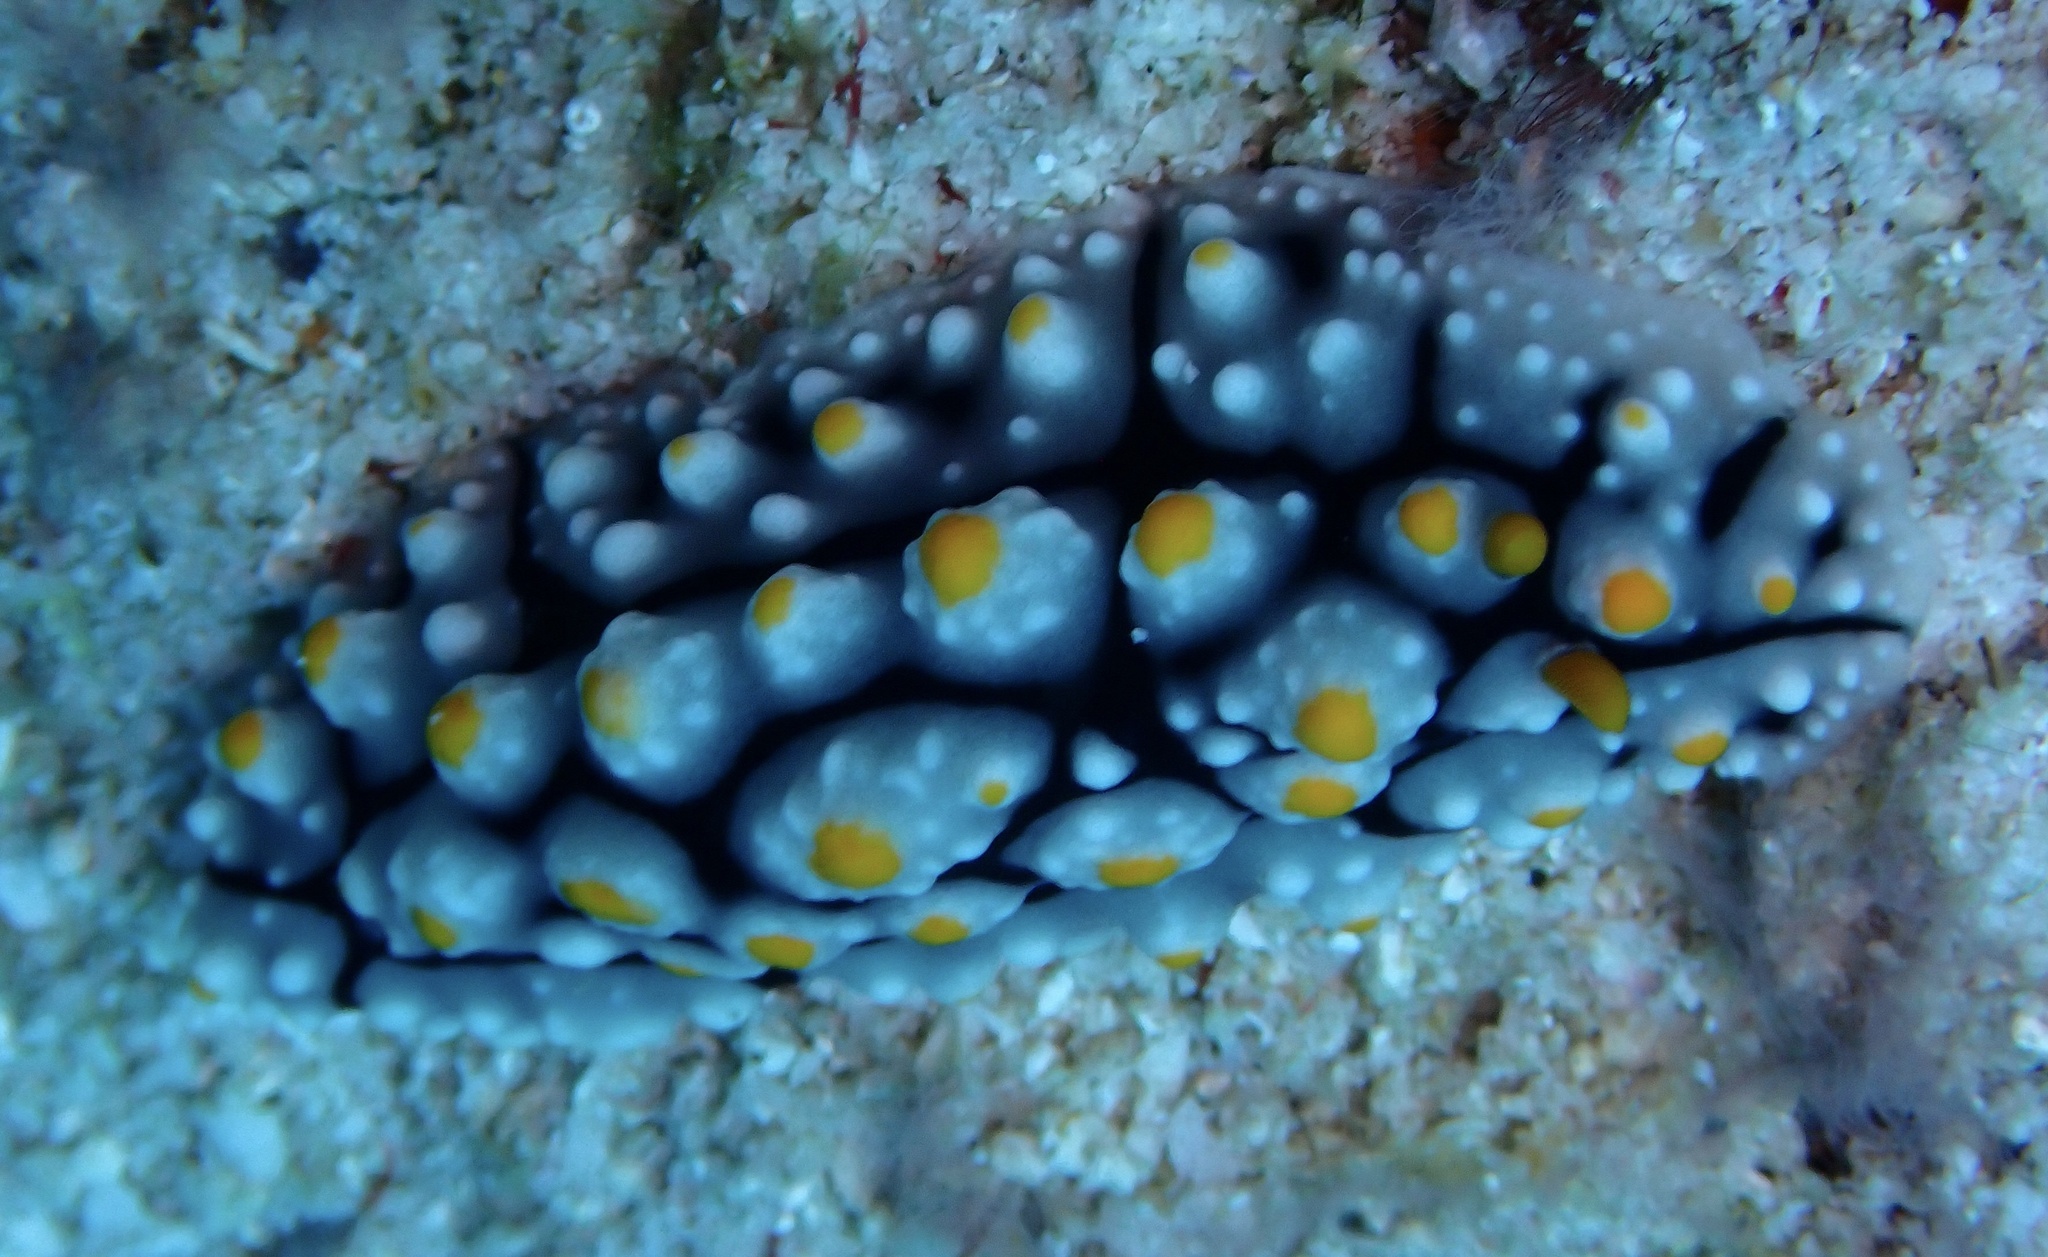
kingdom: Animalia
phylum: Mollusca
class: Gastropoda
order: Nudibranchia
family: Phyllidiidae
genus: Phyllidia
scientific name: Phyllidia elegans
